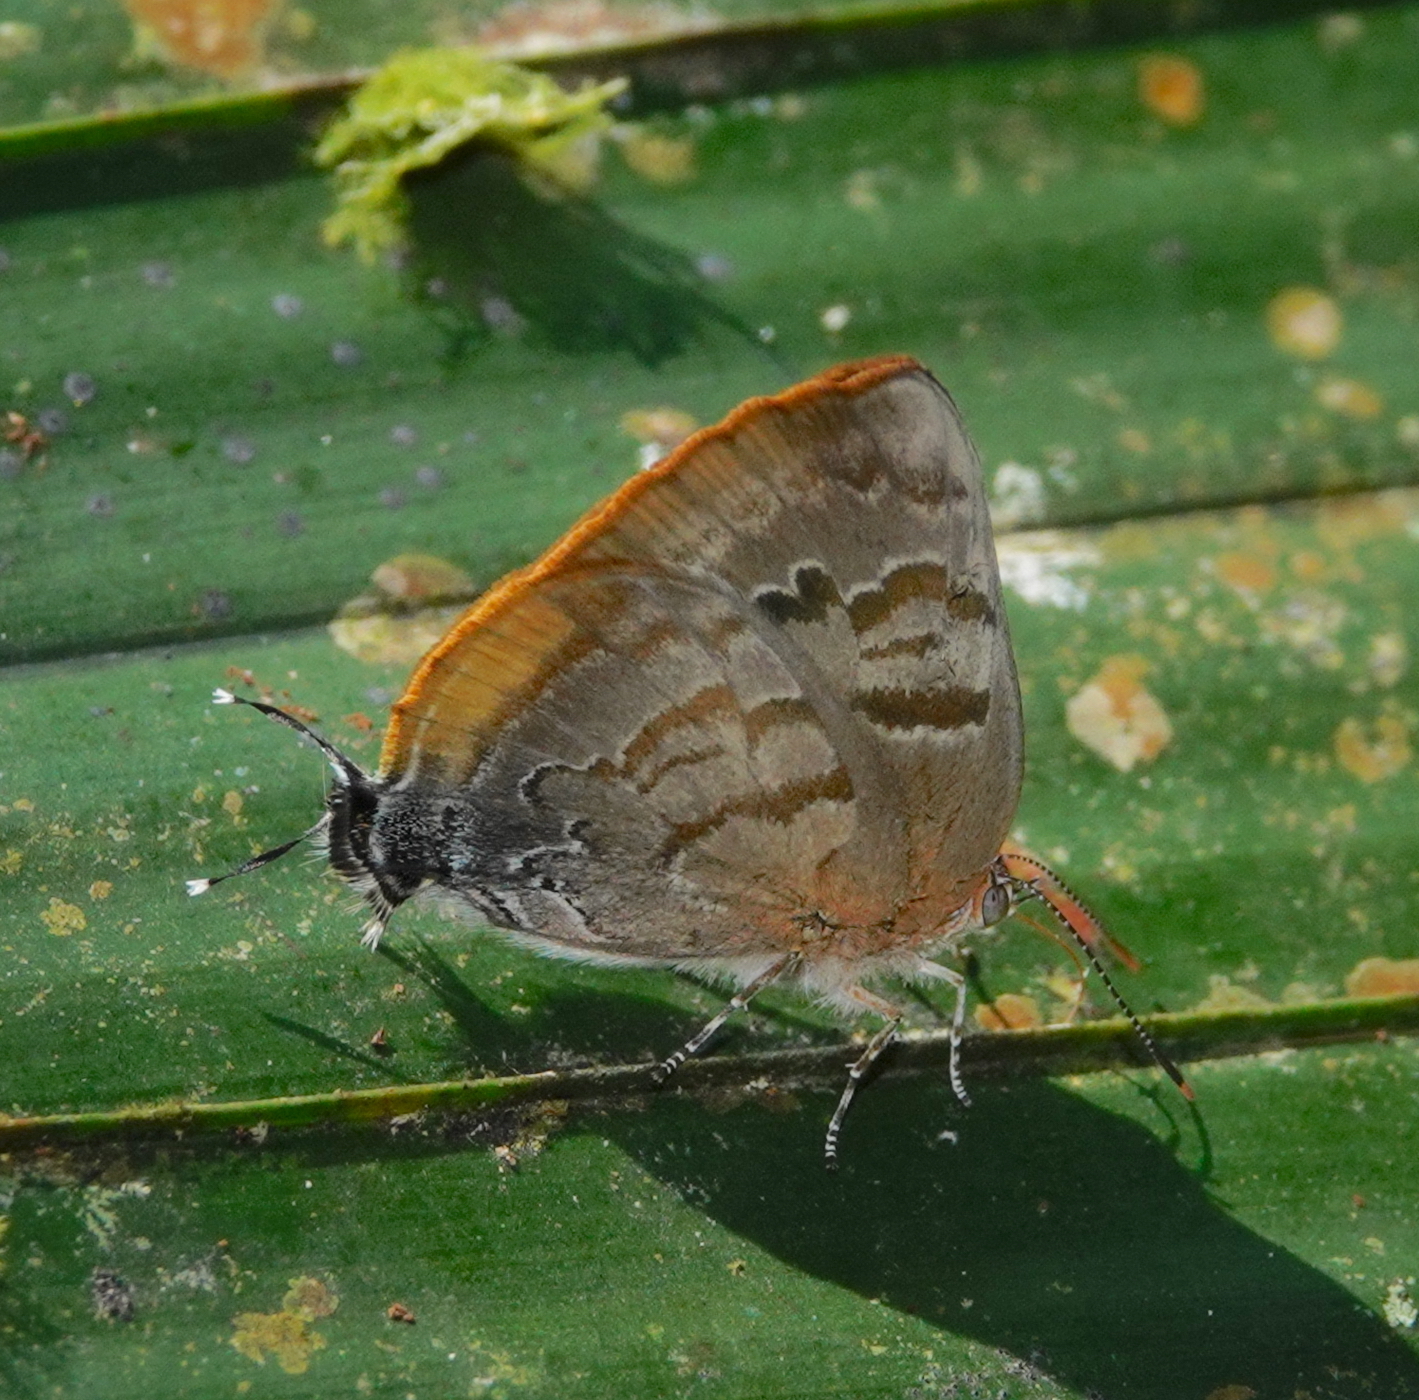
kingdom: Animalia
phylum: Arthropoda
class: Insecta
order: Lepidoptera
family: Lycaenidae
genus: Rekoa
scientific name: Rekoa palegon
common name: Gold-bordered hairstreak
